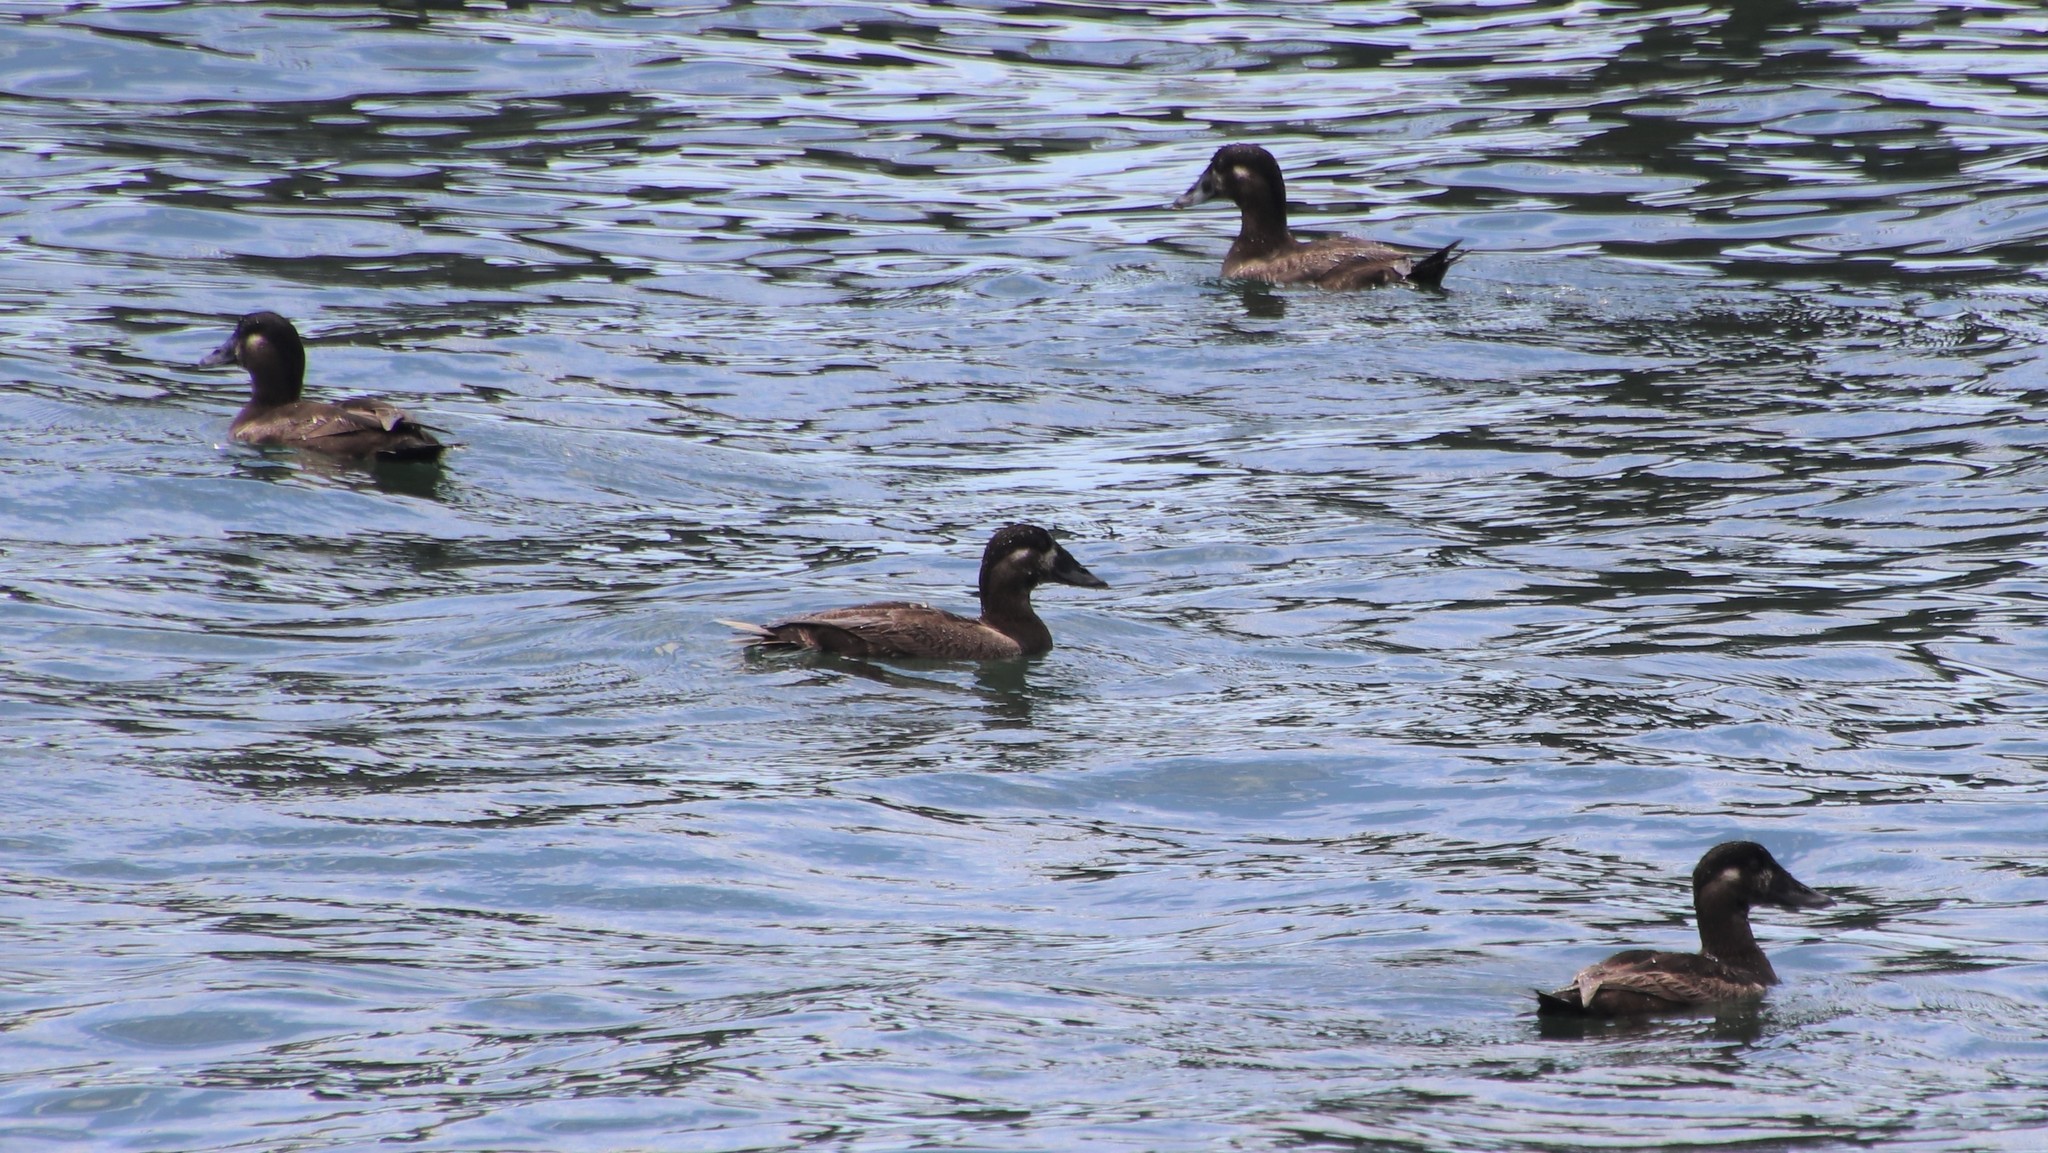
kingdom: Animalia
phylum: Chordata
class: Aves
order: Anseriformes
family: Anatidae
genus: Melanitta
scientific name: Melanitta perspicillata
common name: Surf scoter
